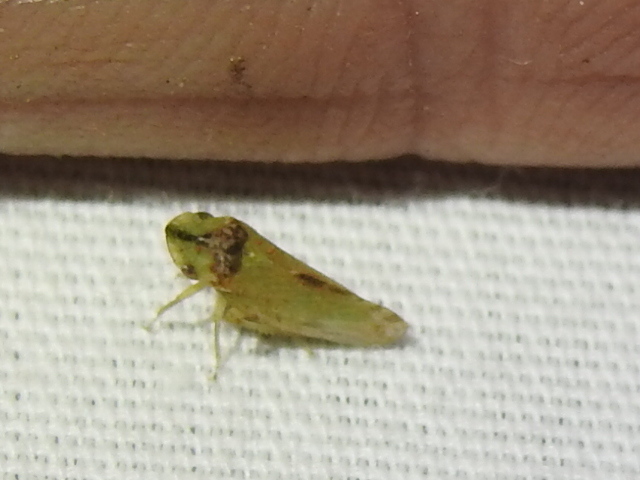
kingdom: Animalia
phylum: Arthropoda
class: Insecta
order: Hemiptera
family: Cicadellidae
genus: Xerophloea
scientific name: Xerophloea viridis
